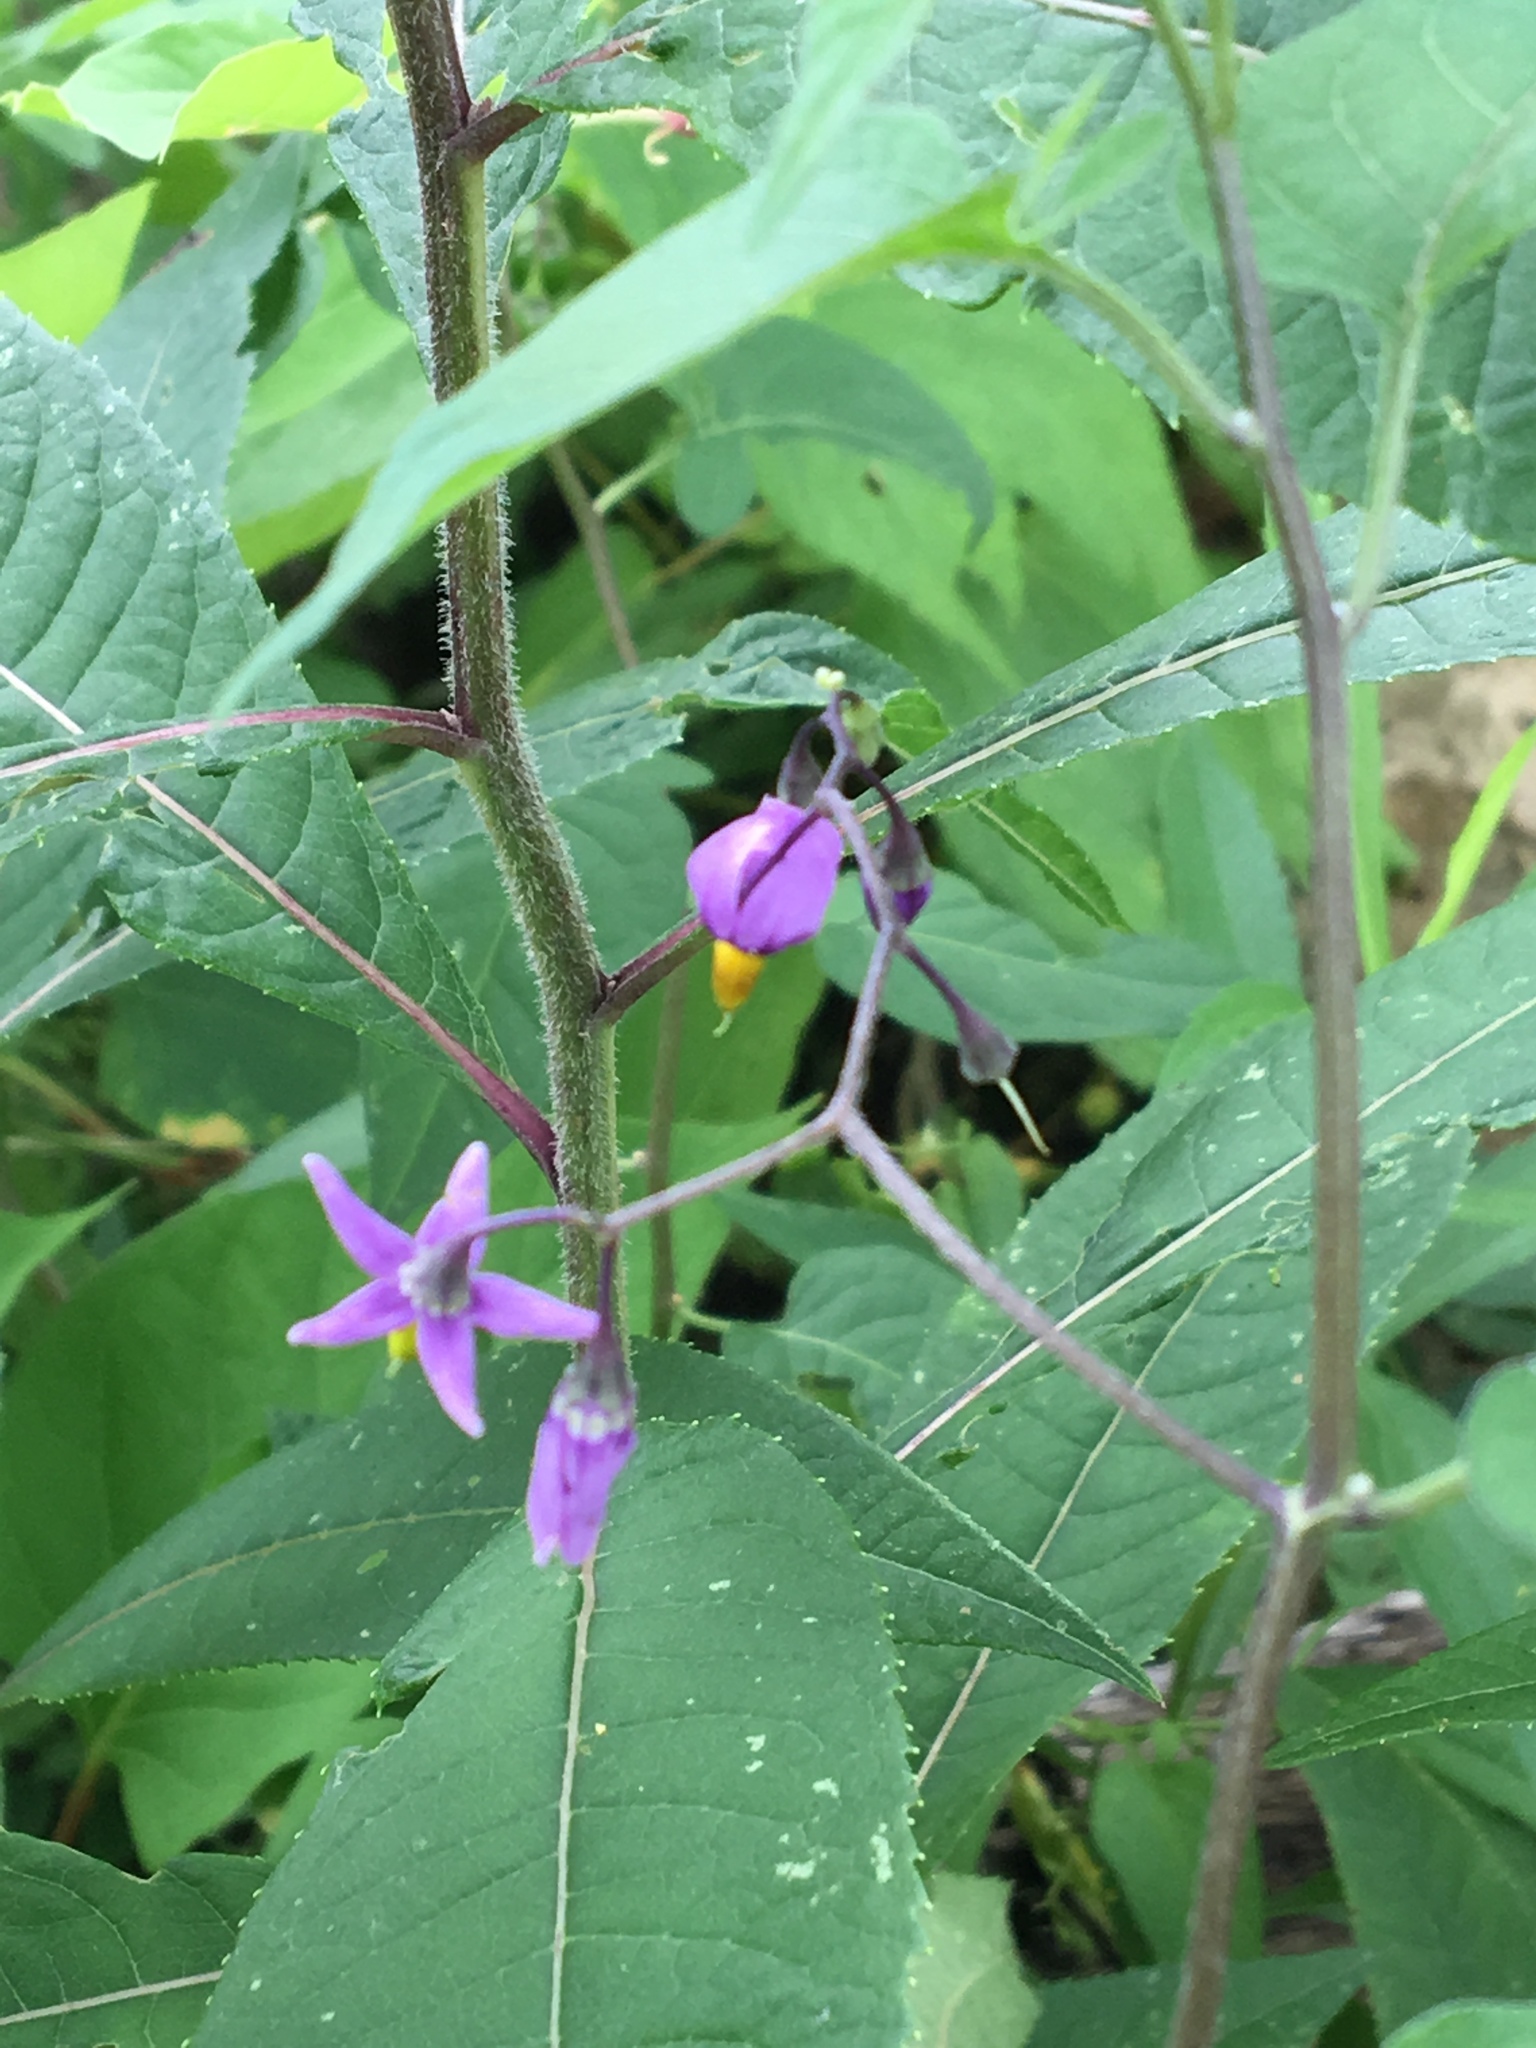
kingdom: Plantae
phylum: Tracheophyta
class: Magnoliopsida
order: Solanales
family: Solanaceae
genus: Solanum
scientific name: Solanum dulcamara
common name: Climbing nightshade
